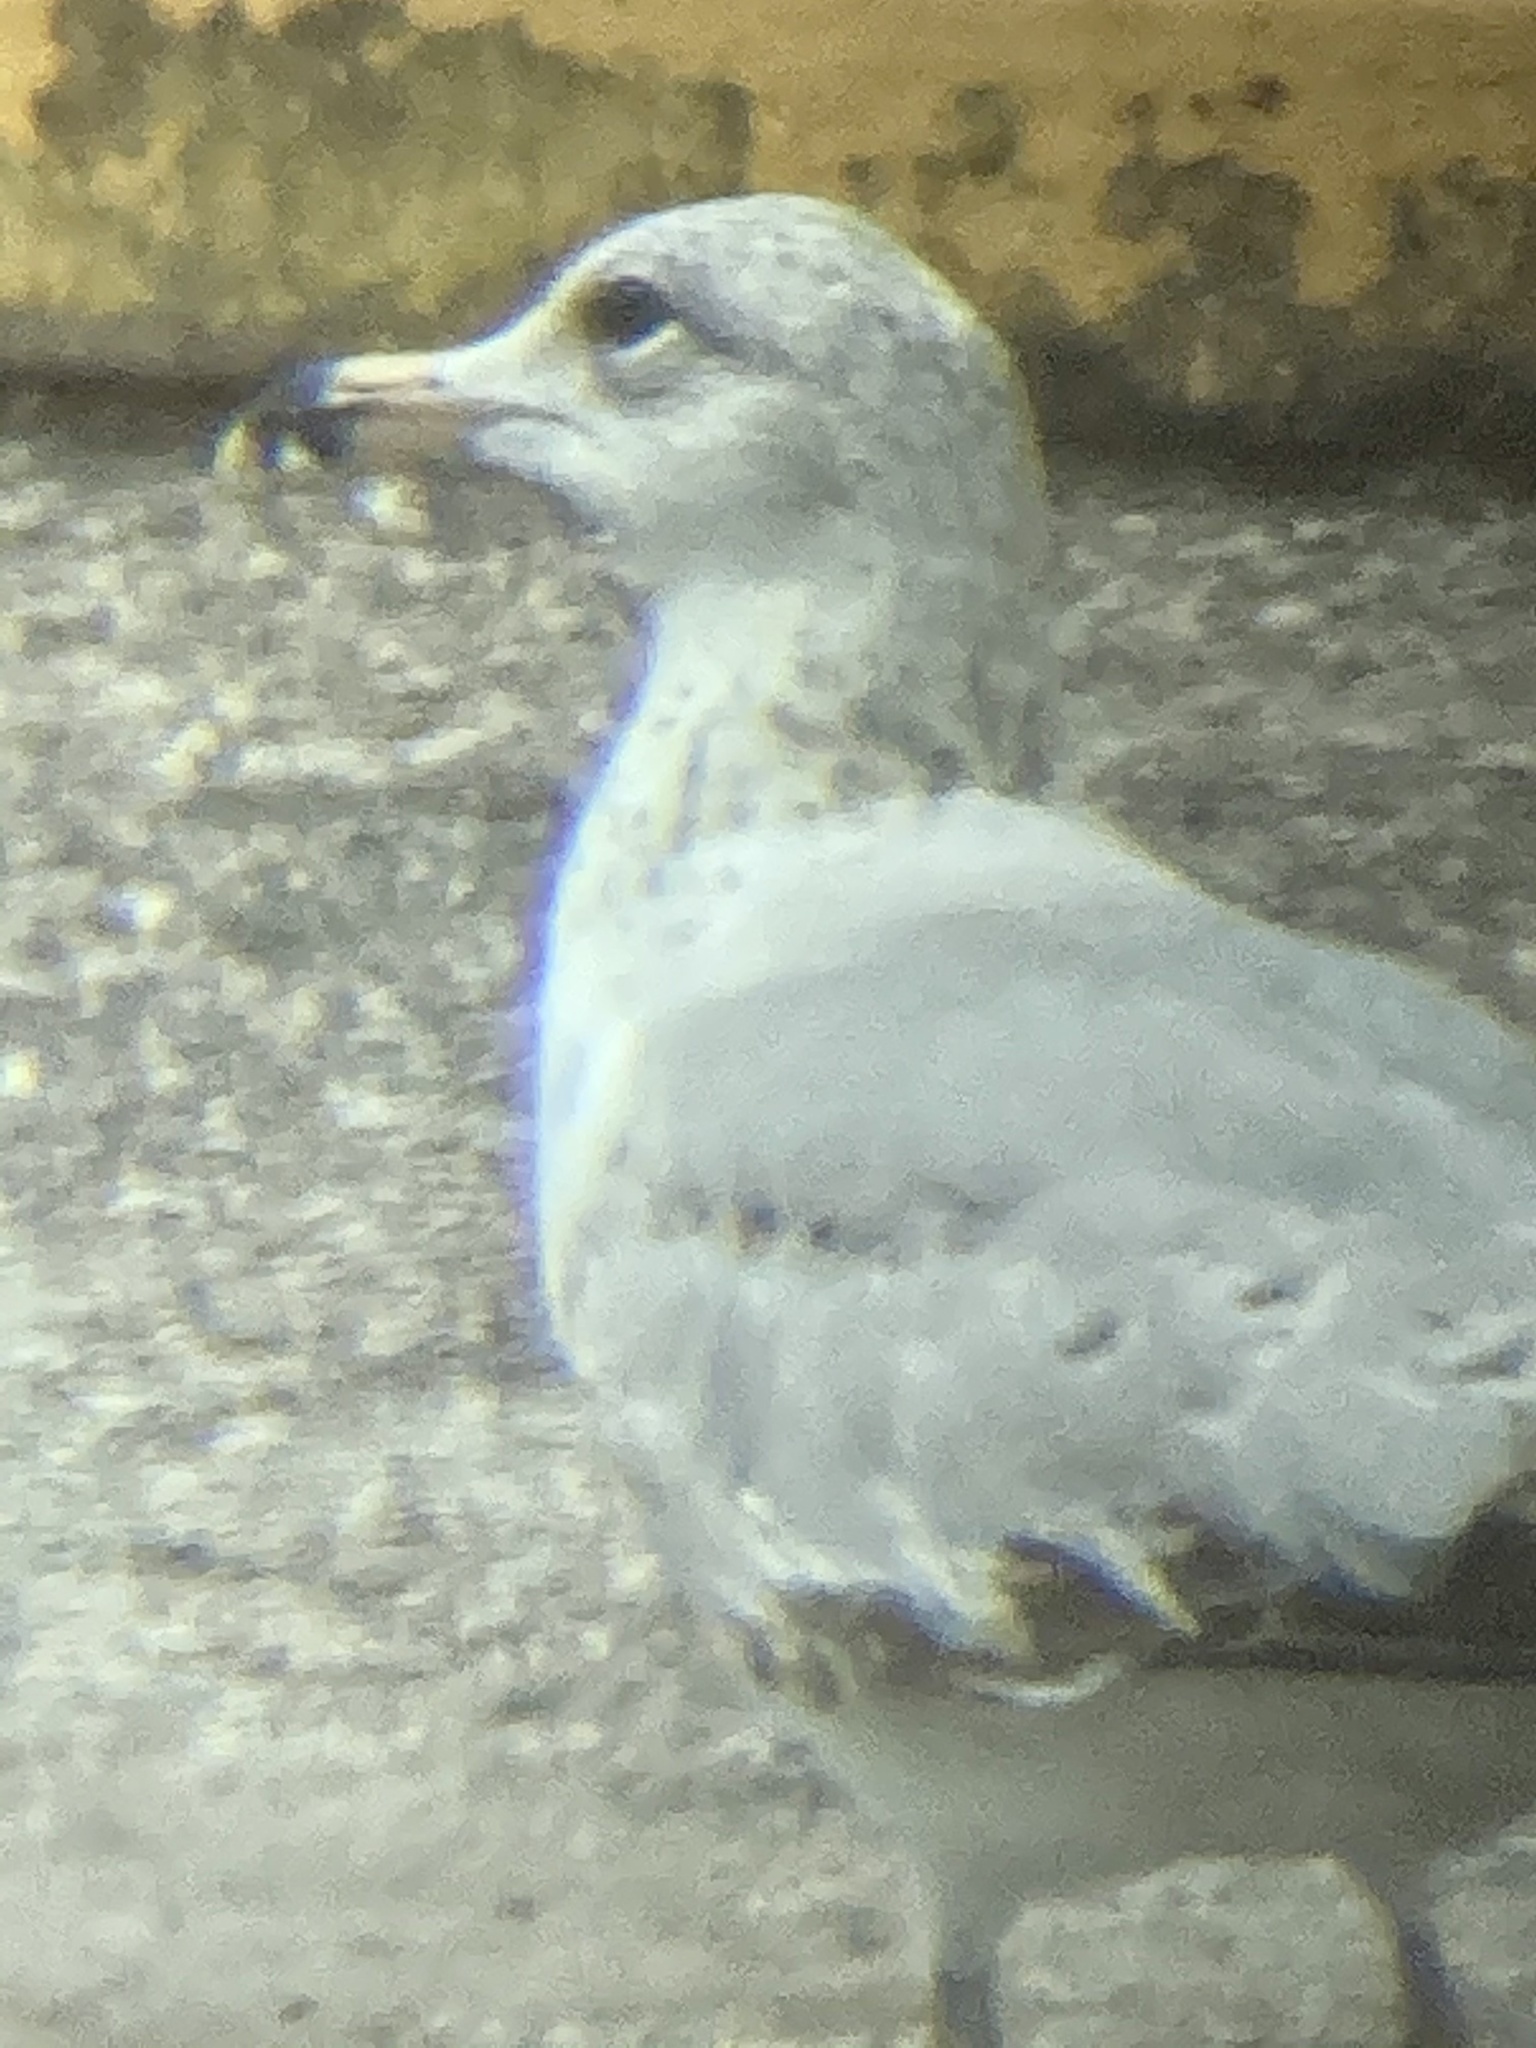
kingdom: Animalia
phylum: Chordata
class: Aves
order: Charadriiformes
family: Laridae
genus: Larus
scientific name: Larus delawarensis
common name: Ring-billed gull
